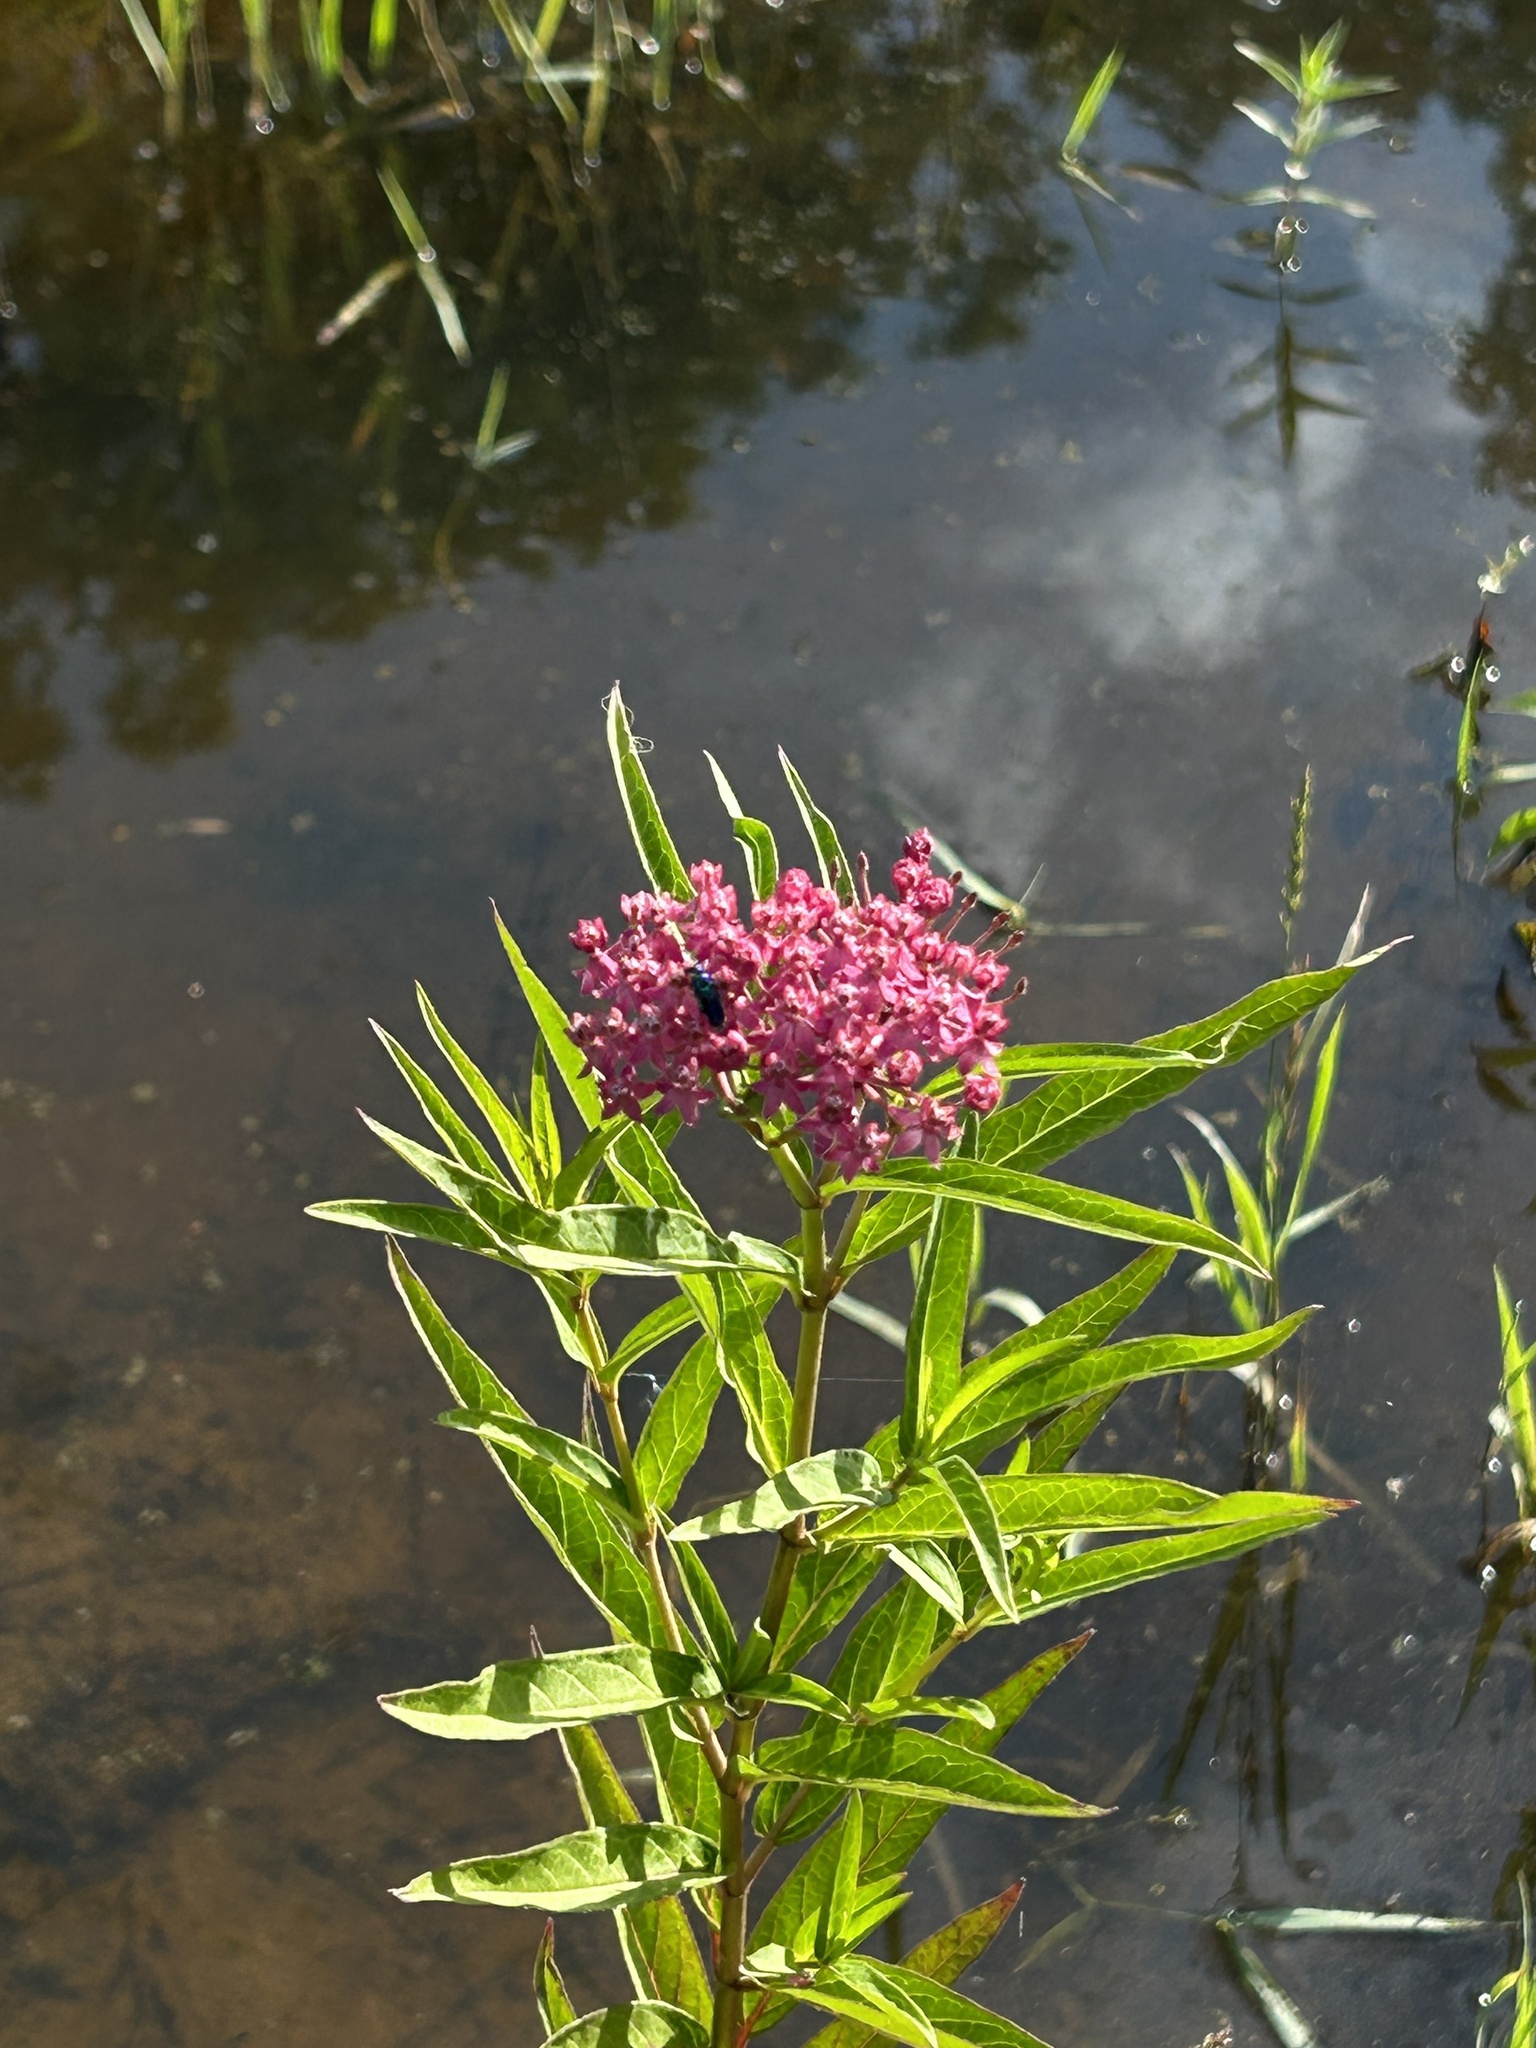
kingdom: Plantae
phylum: Tracheophyta
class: Magnoliopsida
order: Gentianales
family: Apocynaceae
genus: Asclepias
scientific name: Asclepias incarnata
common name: Swamp milkweed
